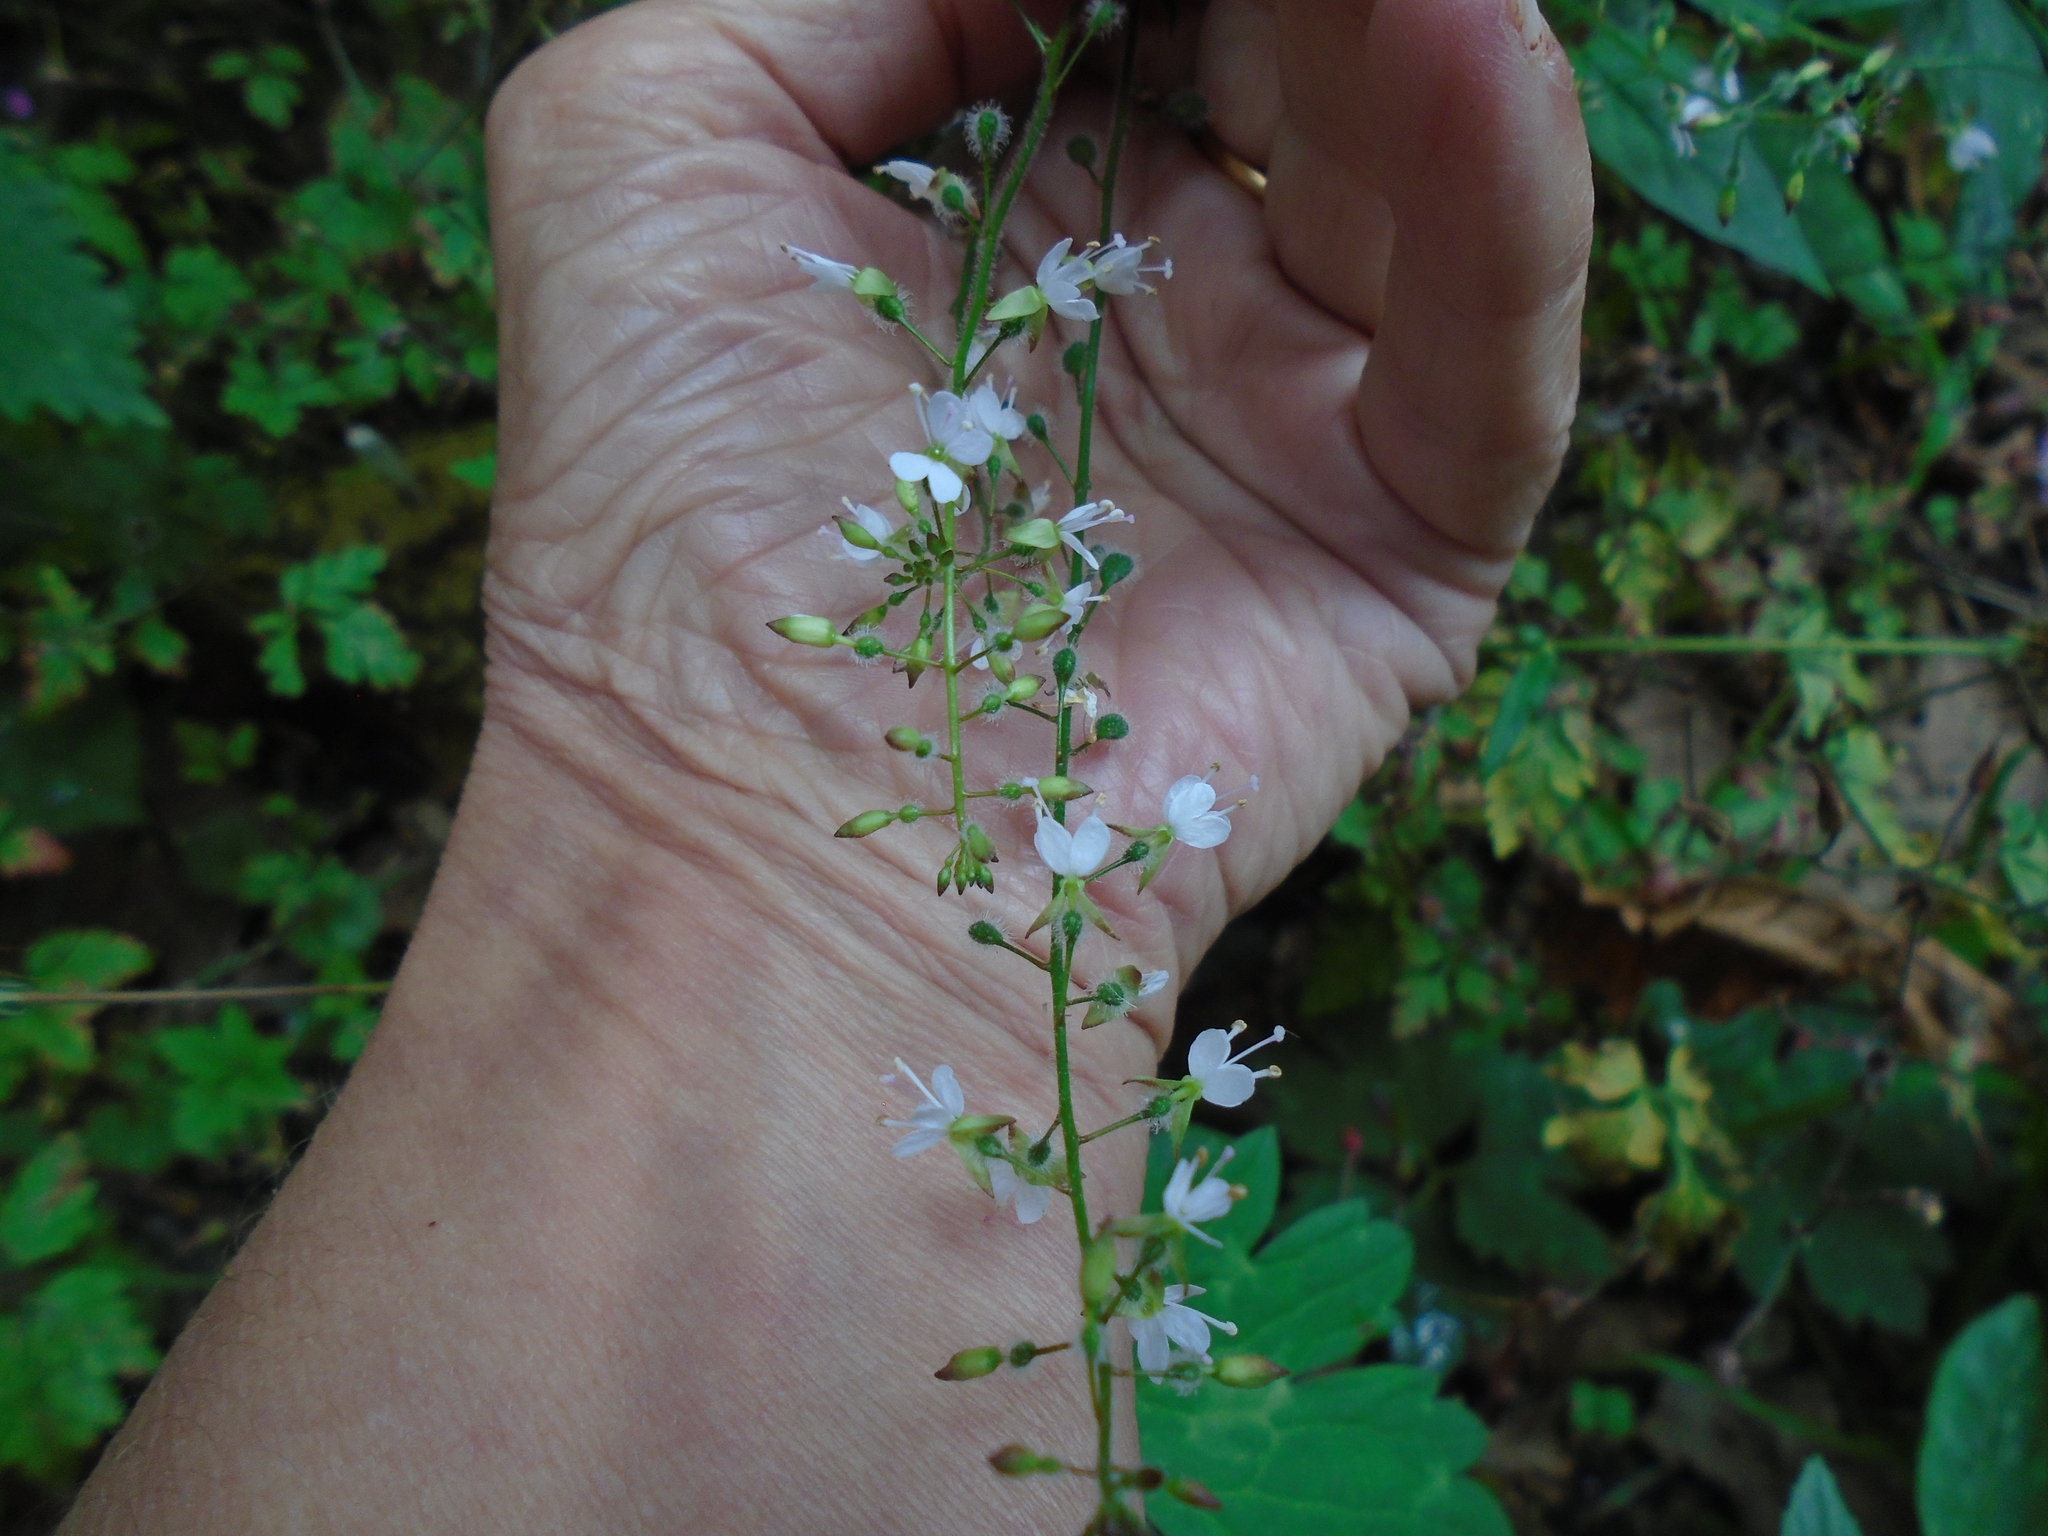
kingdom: Plantae
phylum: Tracheophyta
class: Magnoliopsida
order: Myrtales
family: Onagraceae
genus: Circaea
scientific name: Circaea lutetiana
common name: Enchanter's-nightshade
